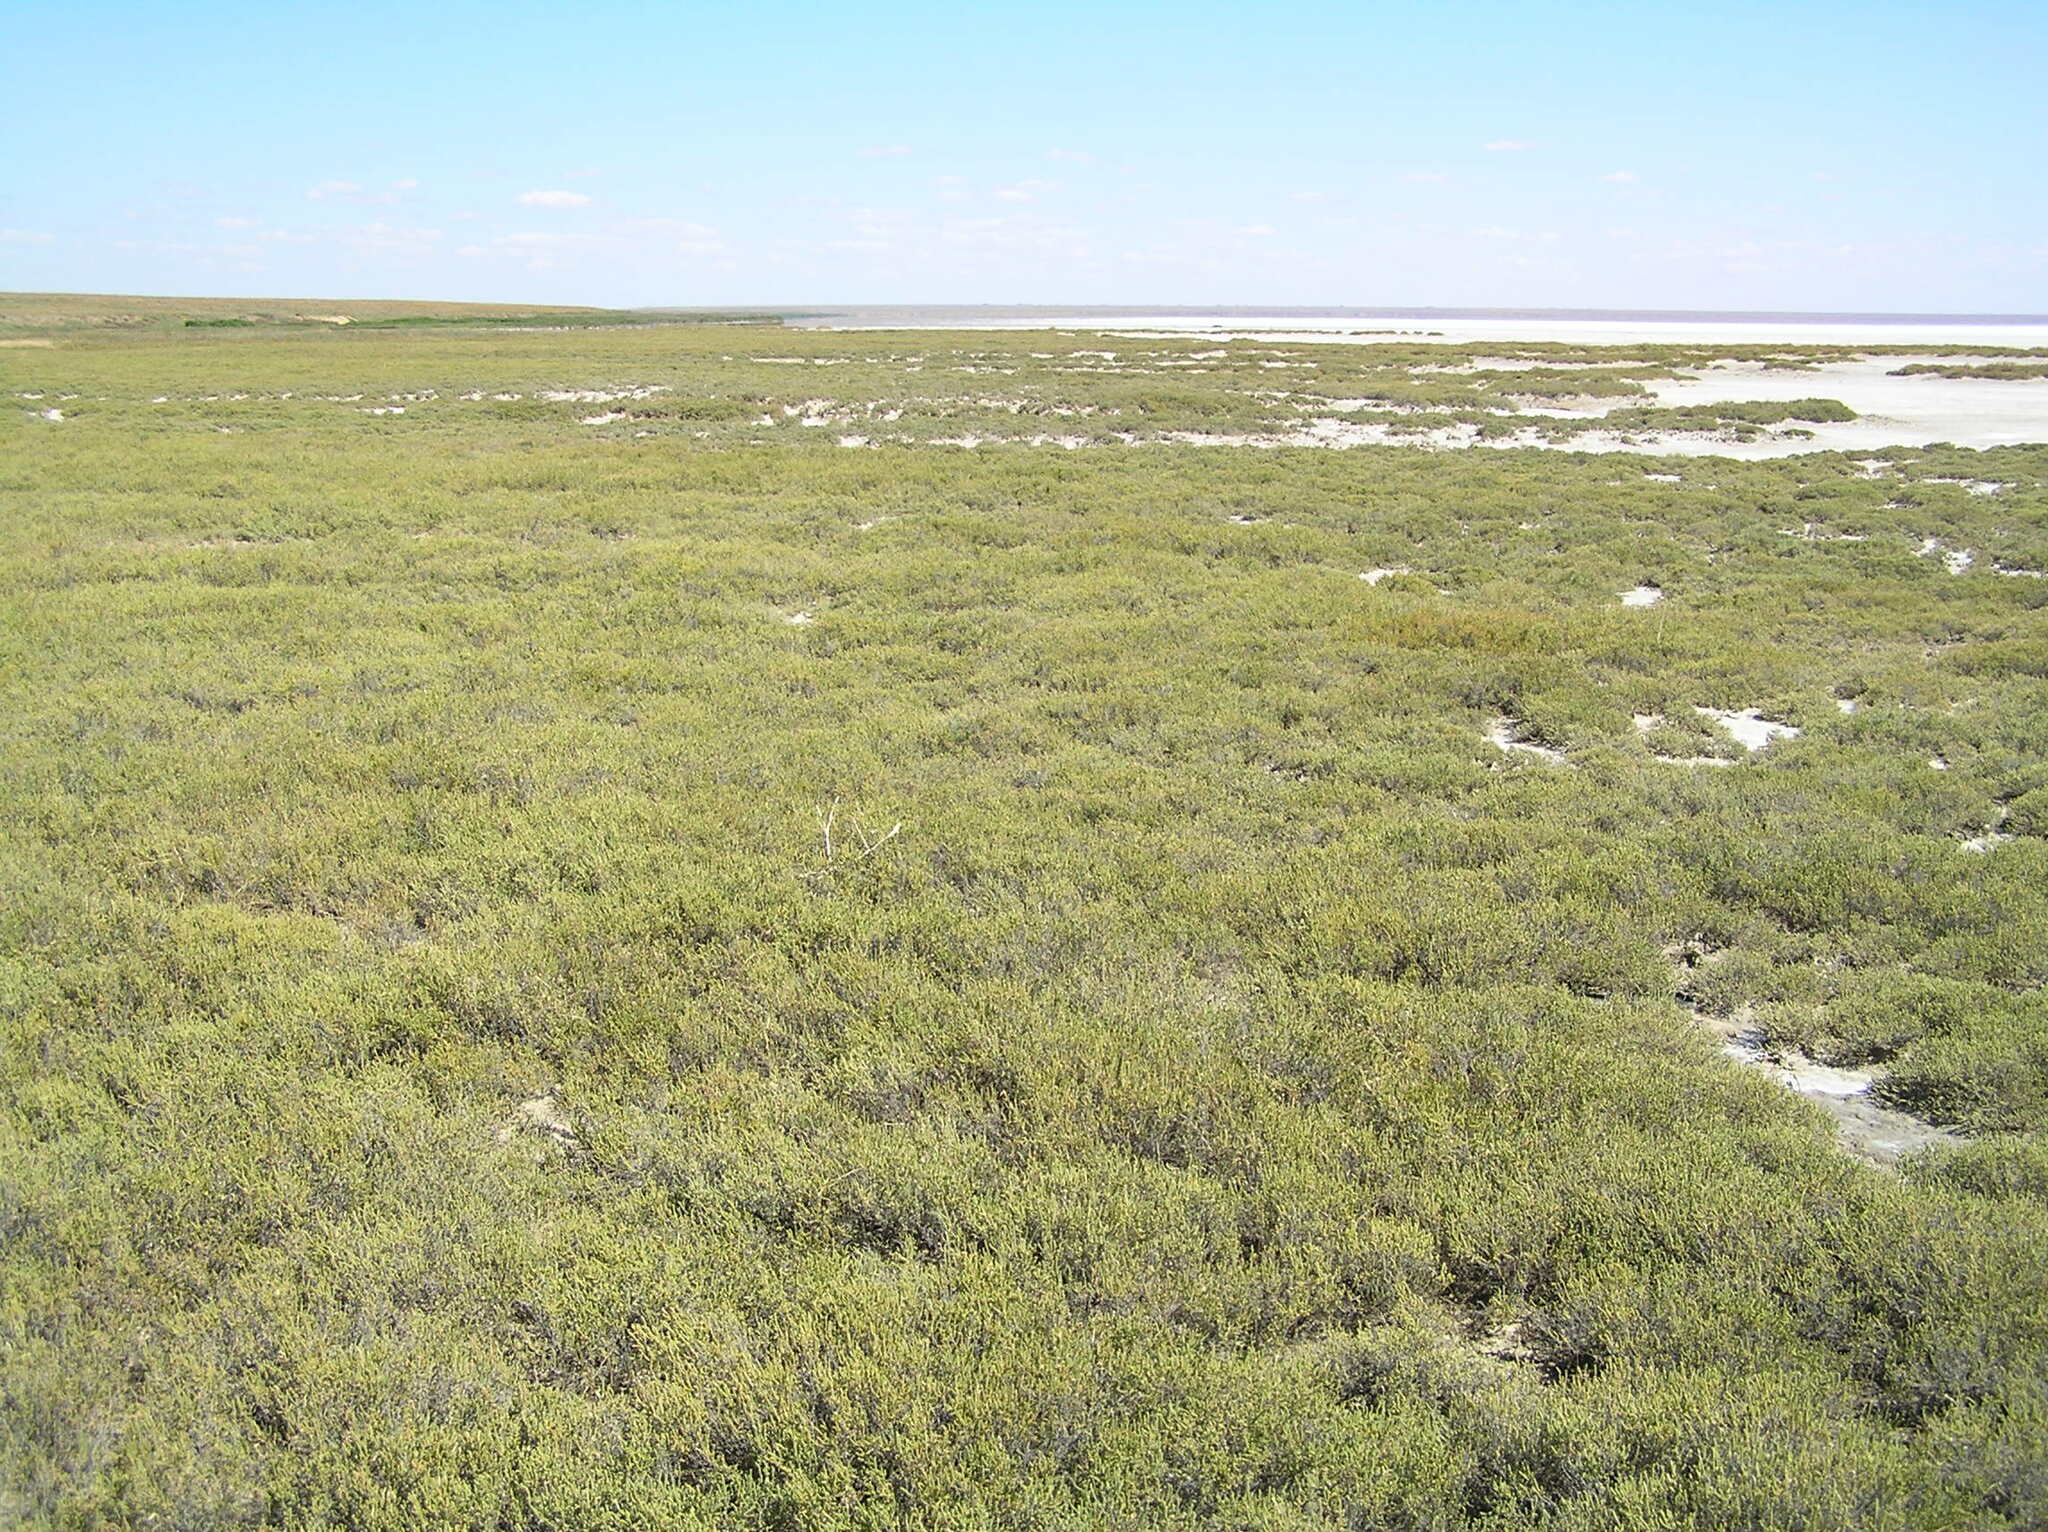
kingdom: Plantae
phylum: Tracheophyta
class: Magnoliopsida
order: Caryophyllales
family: Amaranthaceae
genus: Halocnemum
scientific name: Halocnemum strobilaceum
